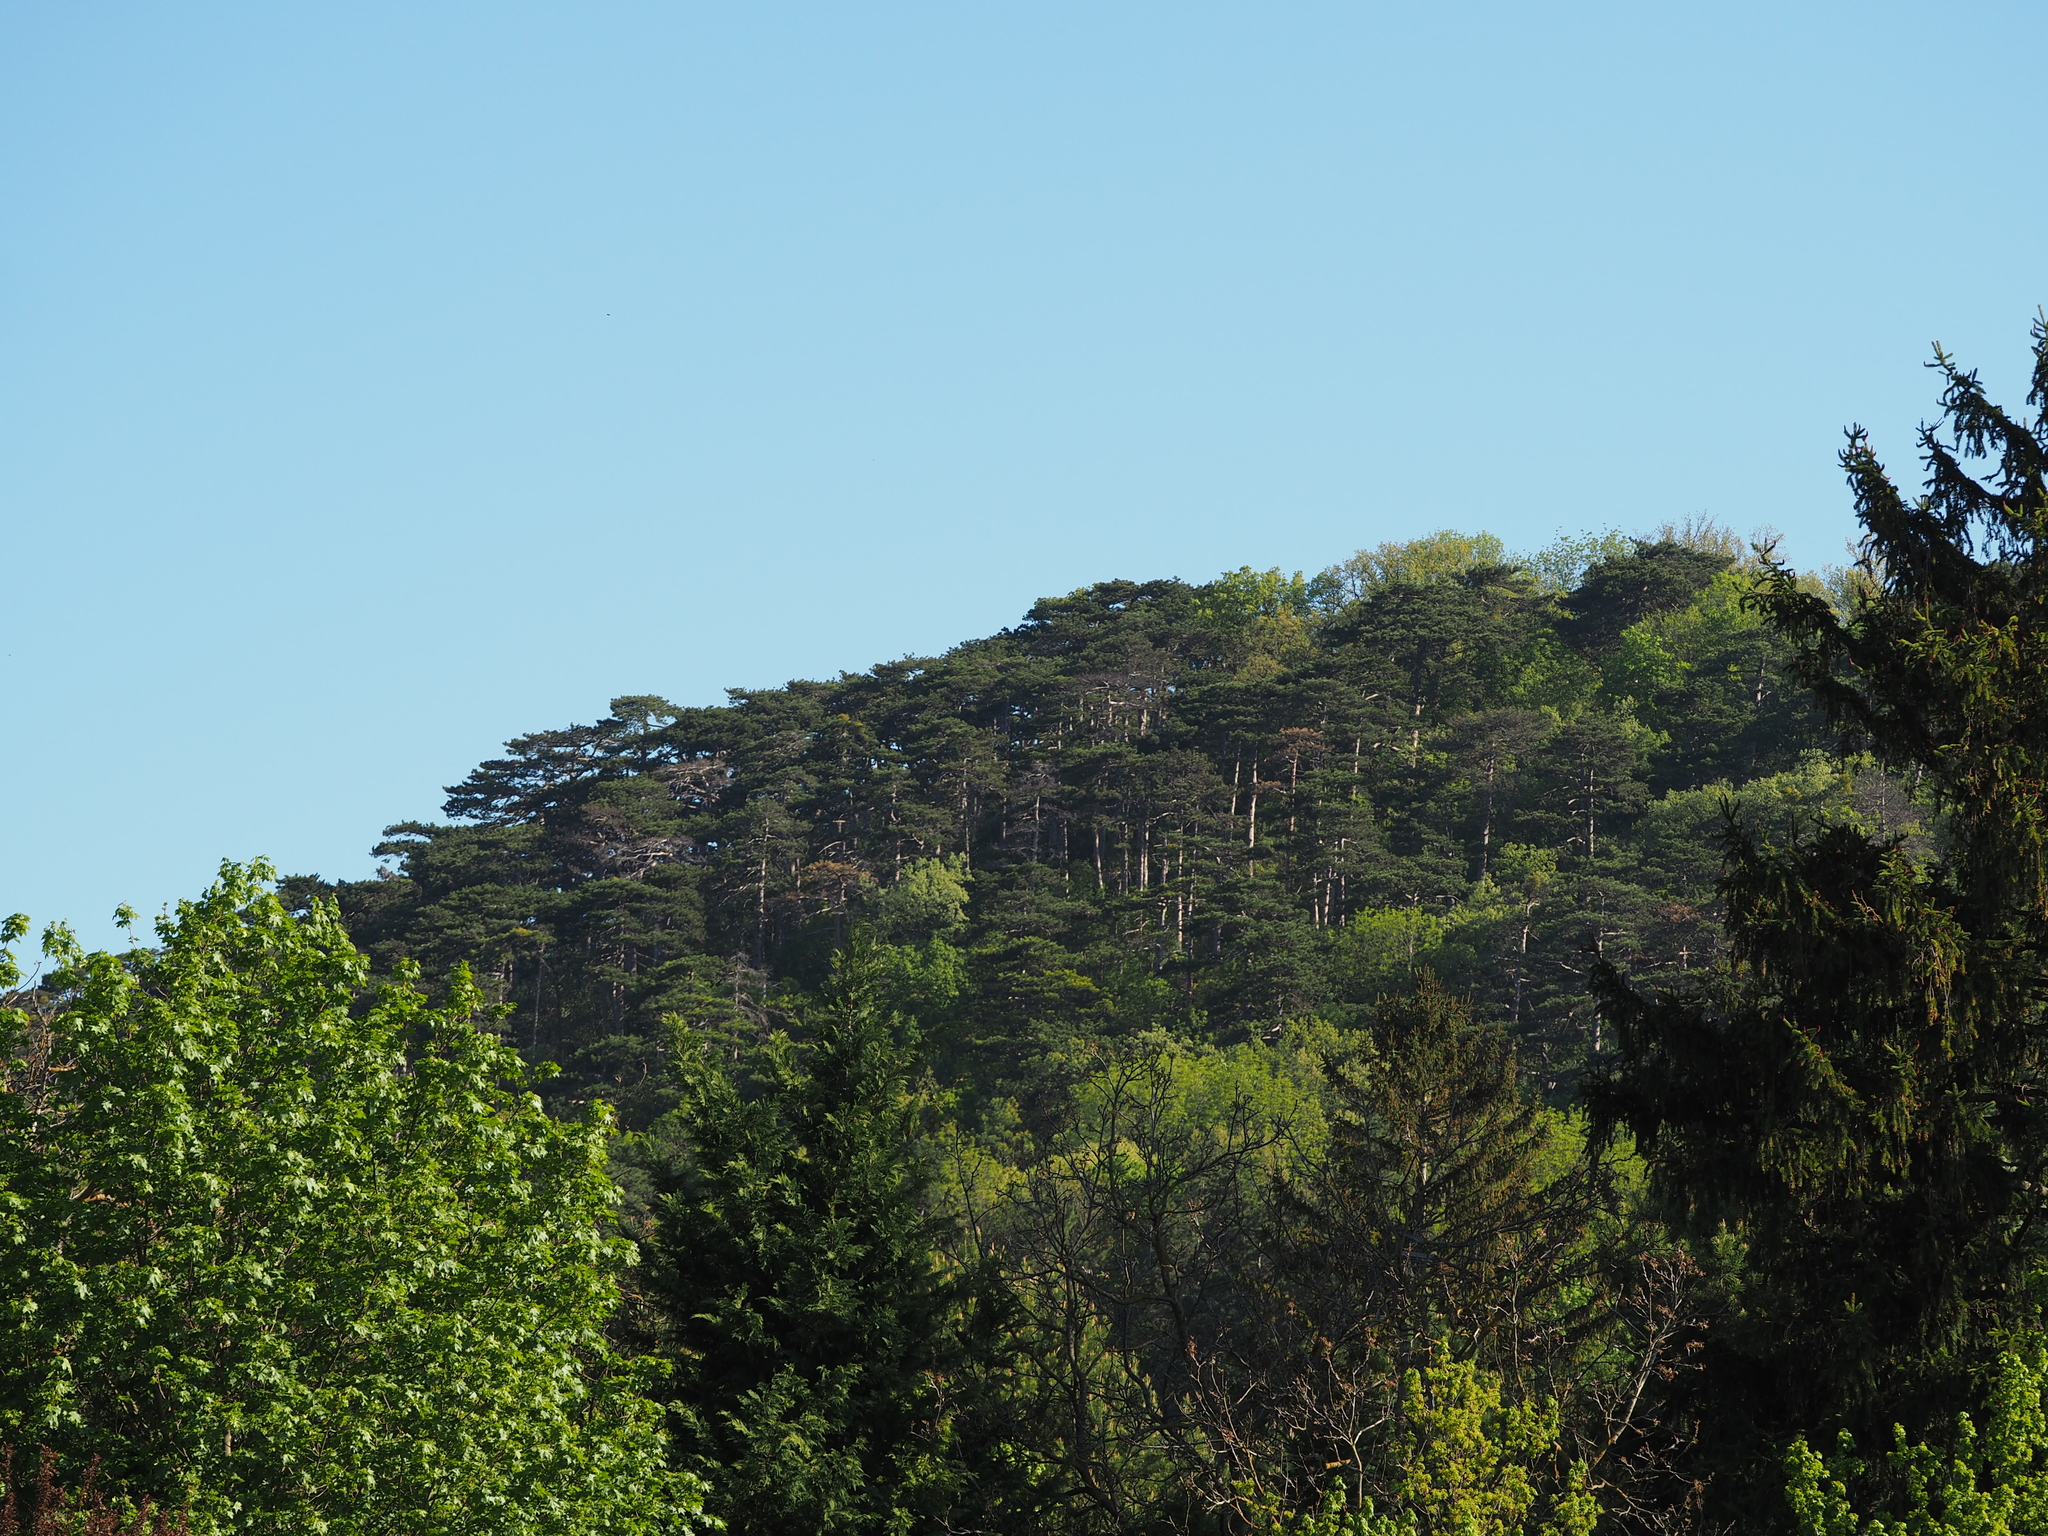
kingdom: Plantae
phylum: Tracheophyta
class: Pinopsida
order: Pinales
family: Pinaceae
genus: Pinus
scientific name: Pinus nigra
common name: Austrian pine
